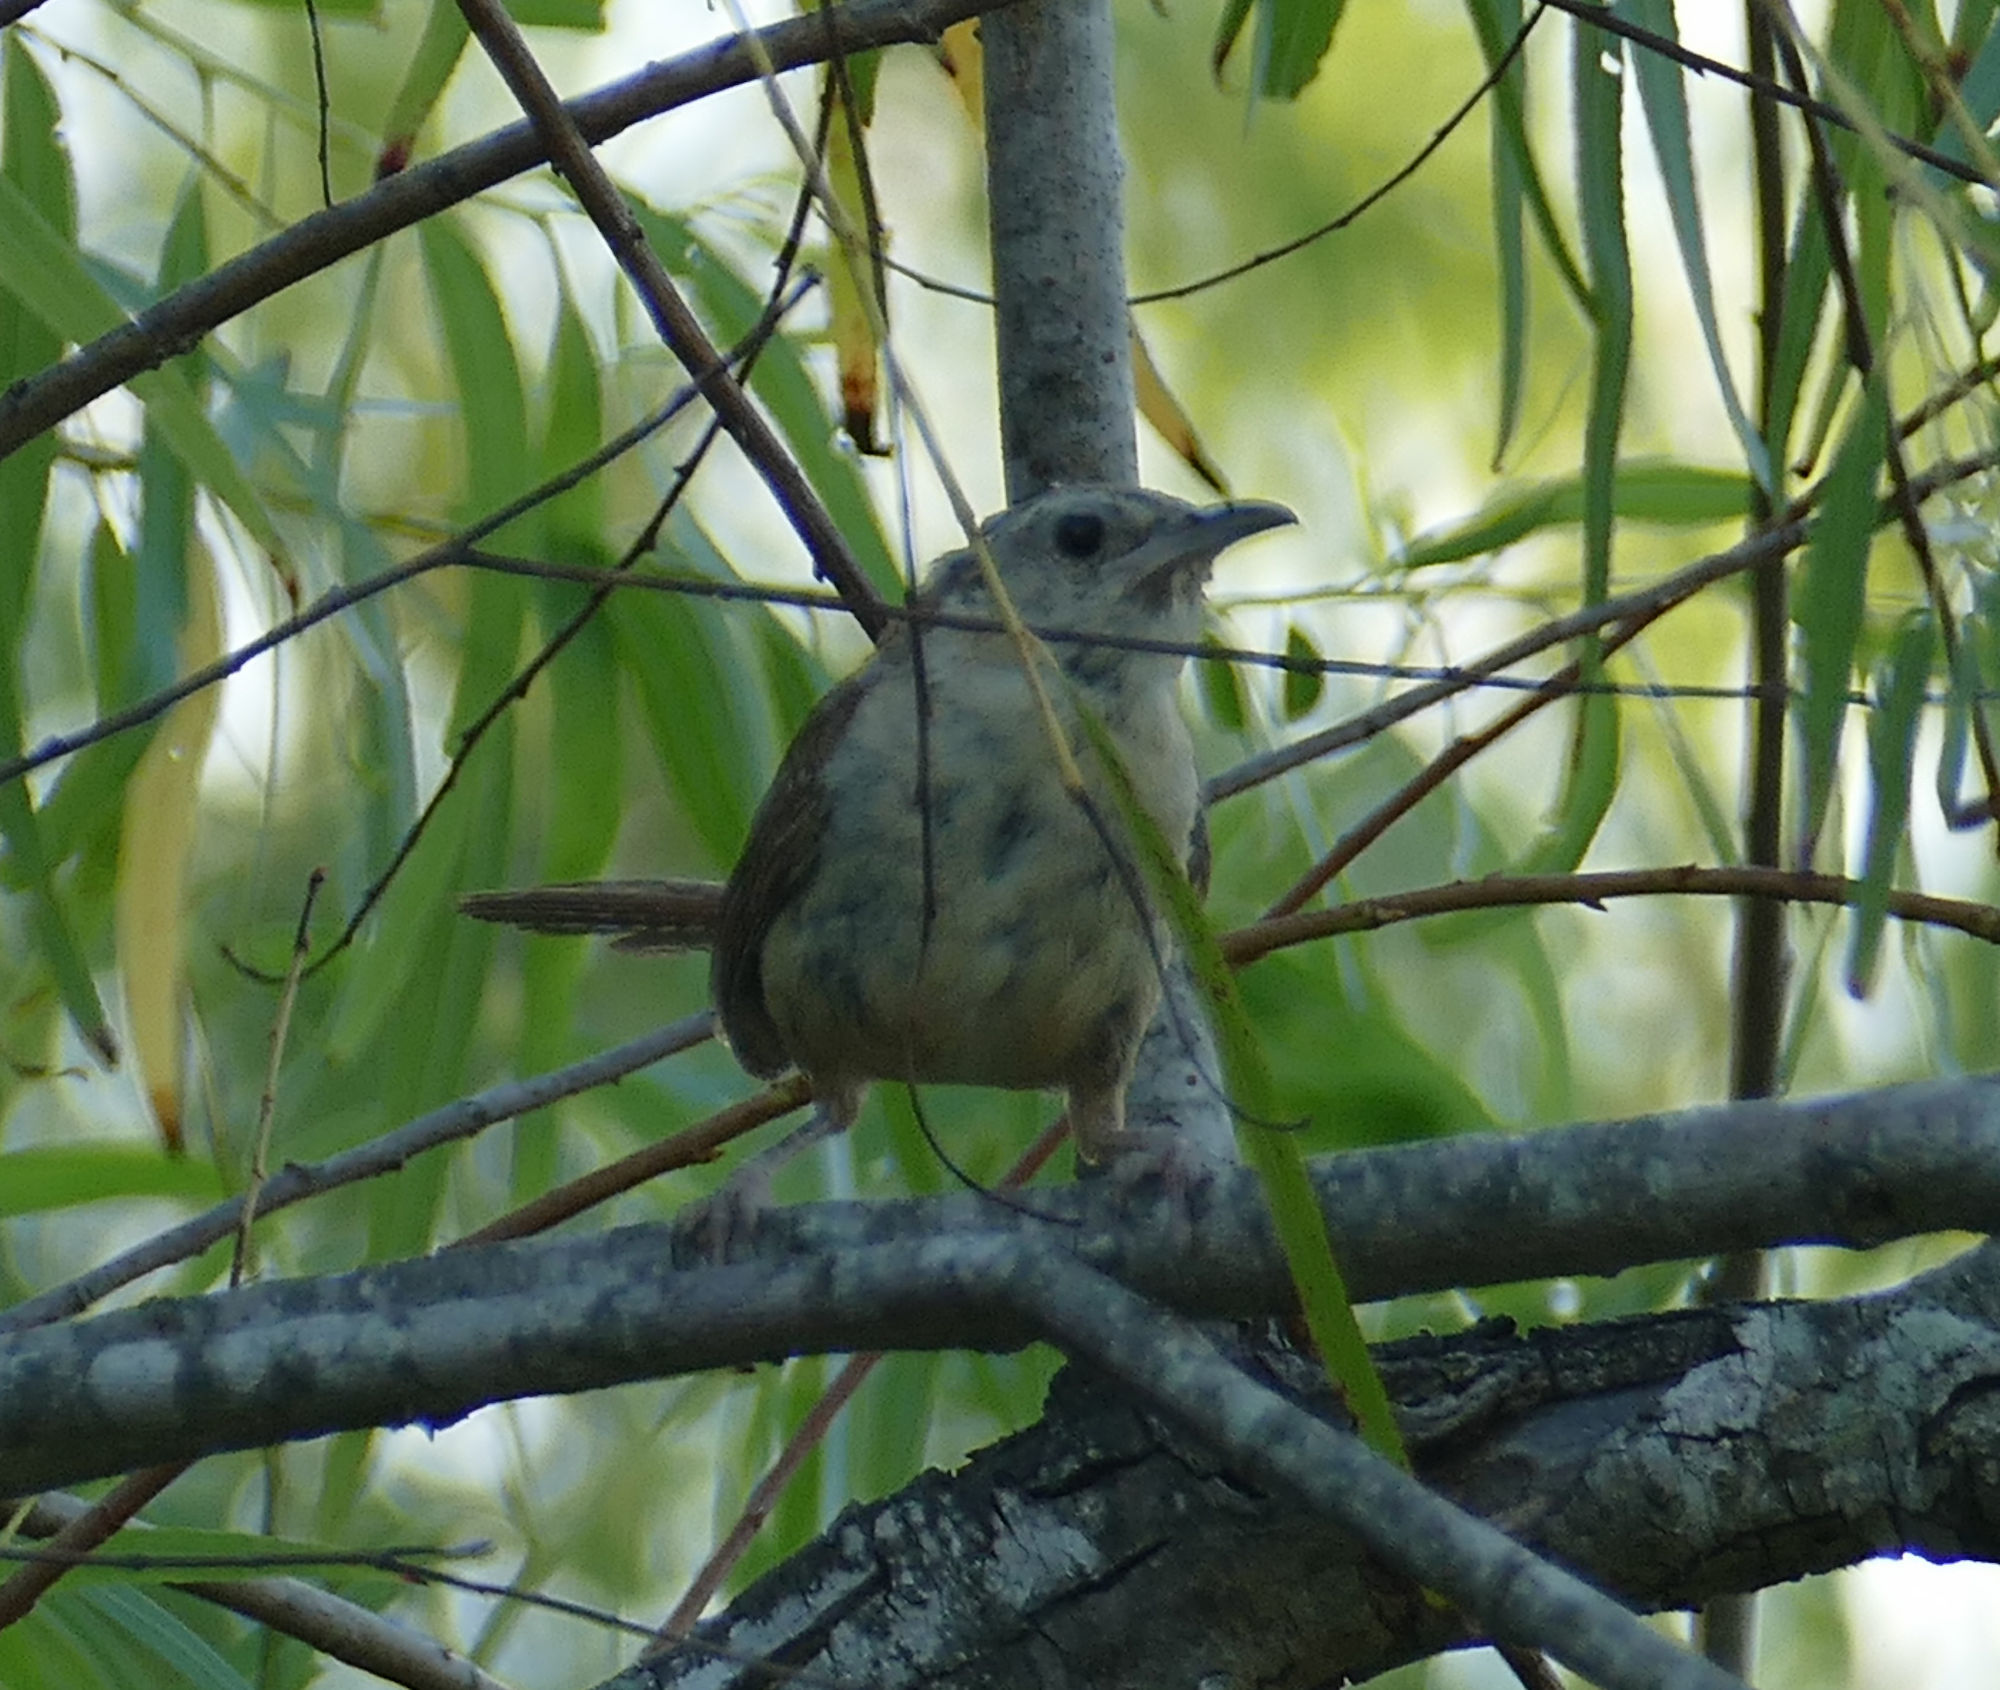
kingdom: Animalia
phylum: Chordata
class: Aves
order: Passeriformes
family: Troglodytidae
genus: Thryothorus
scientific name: Thryothorus ludovicianus
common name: Carolina wren
